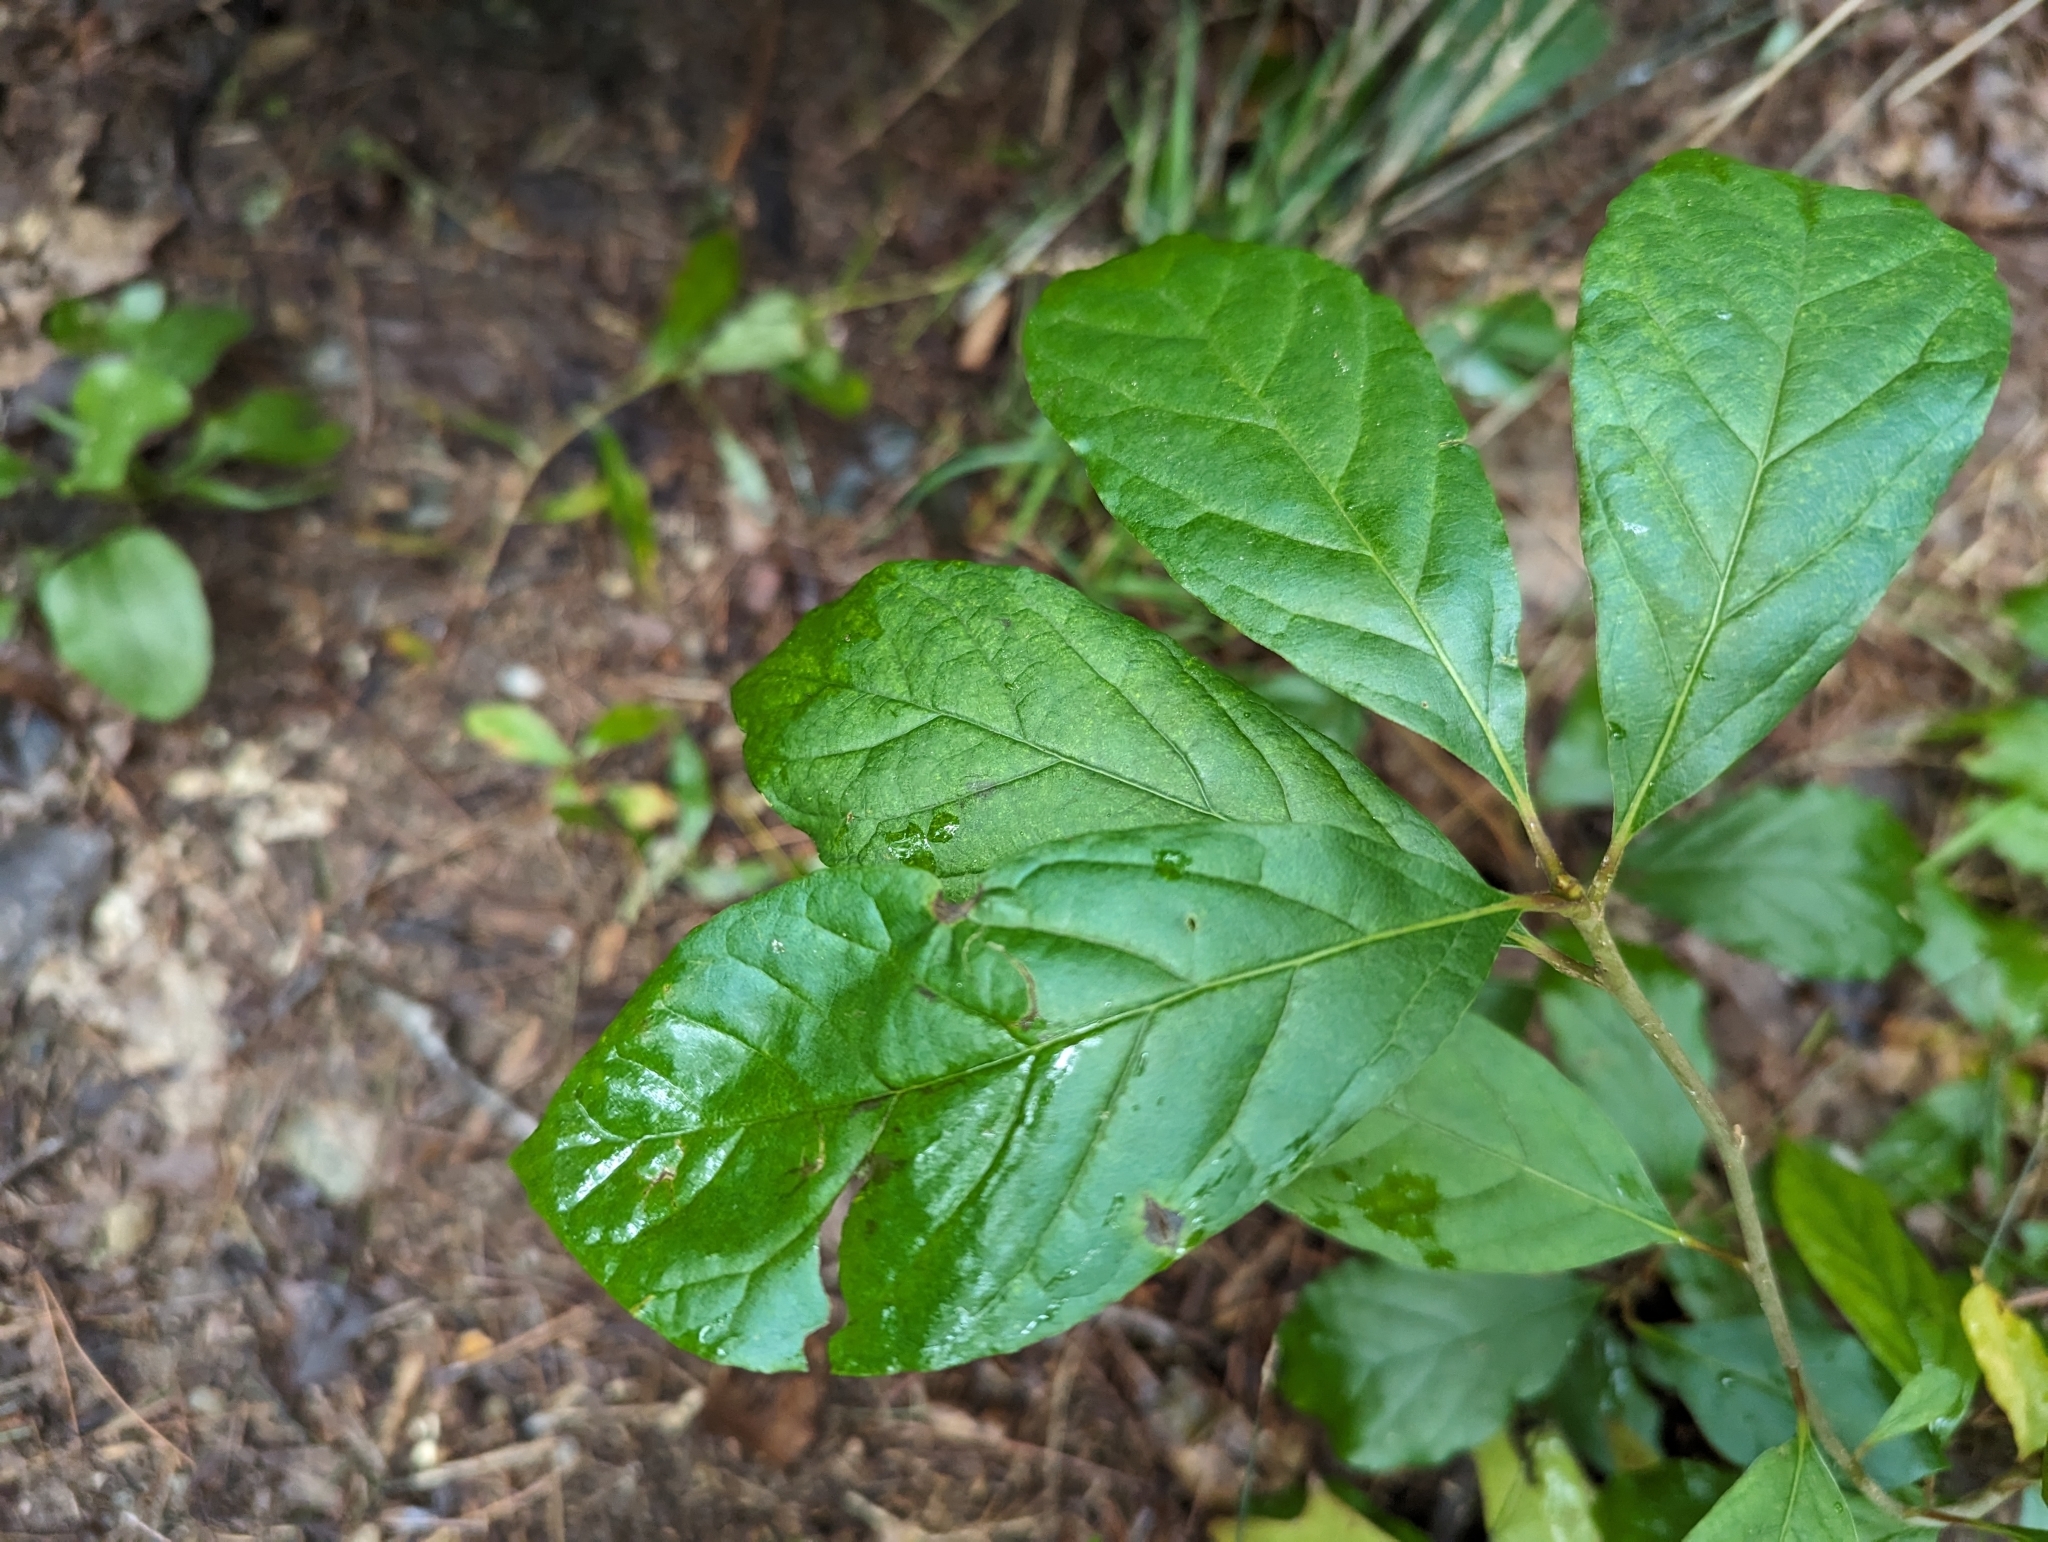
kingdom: Plantae
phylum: Tracheophyta
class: Magnoliopsida
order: Cornales
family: Nyssaceae
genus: Nyssa
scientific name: Nyssa sylvatica
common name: Black tupelo
